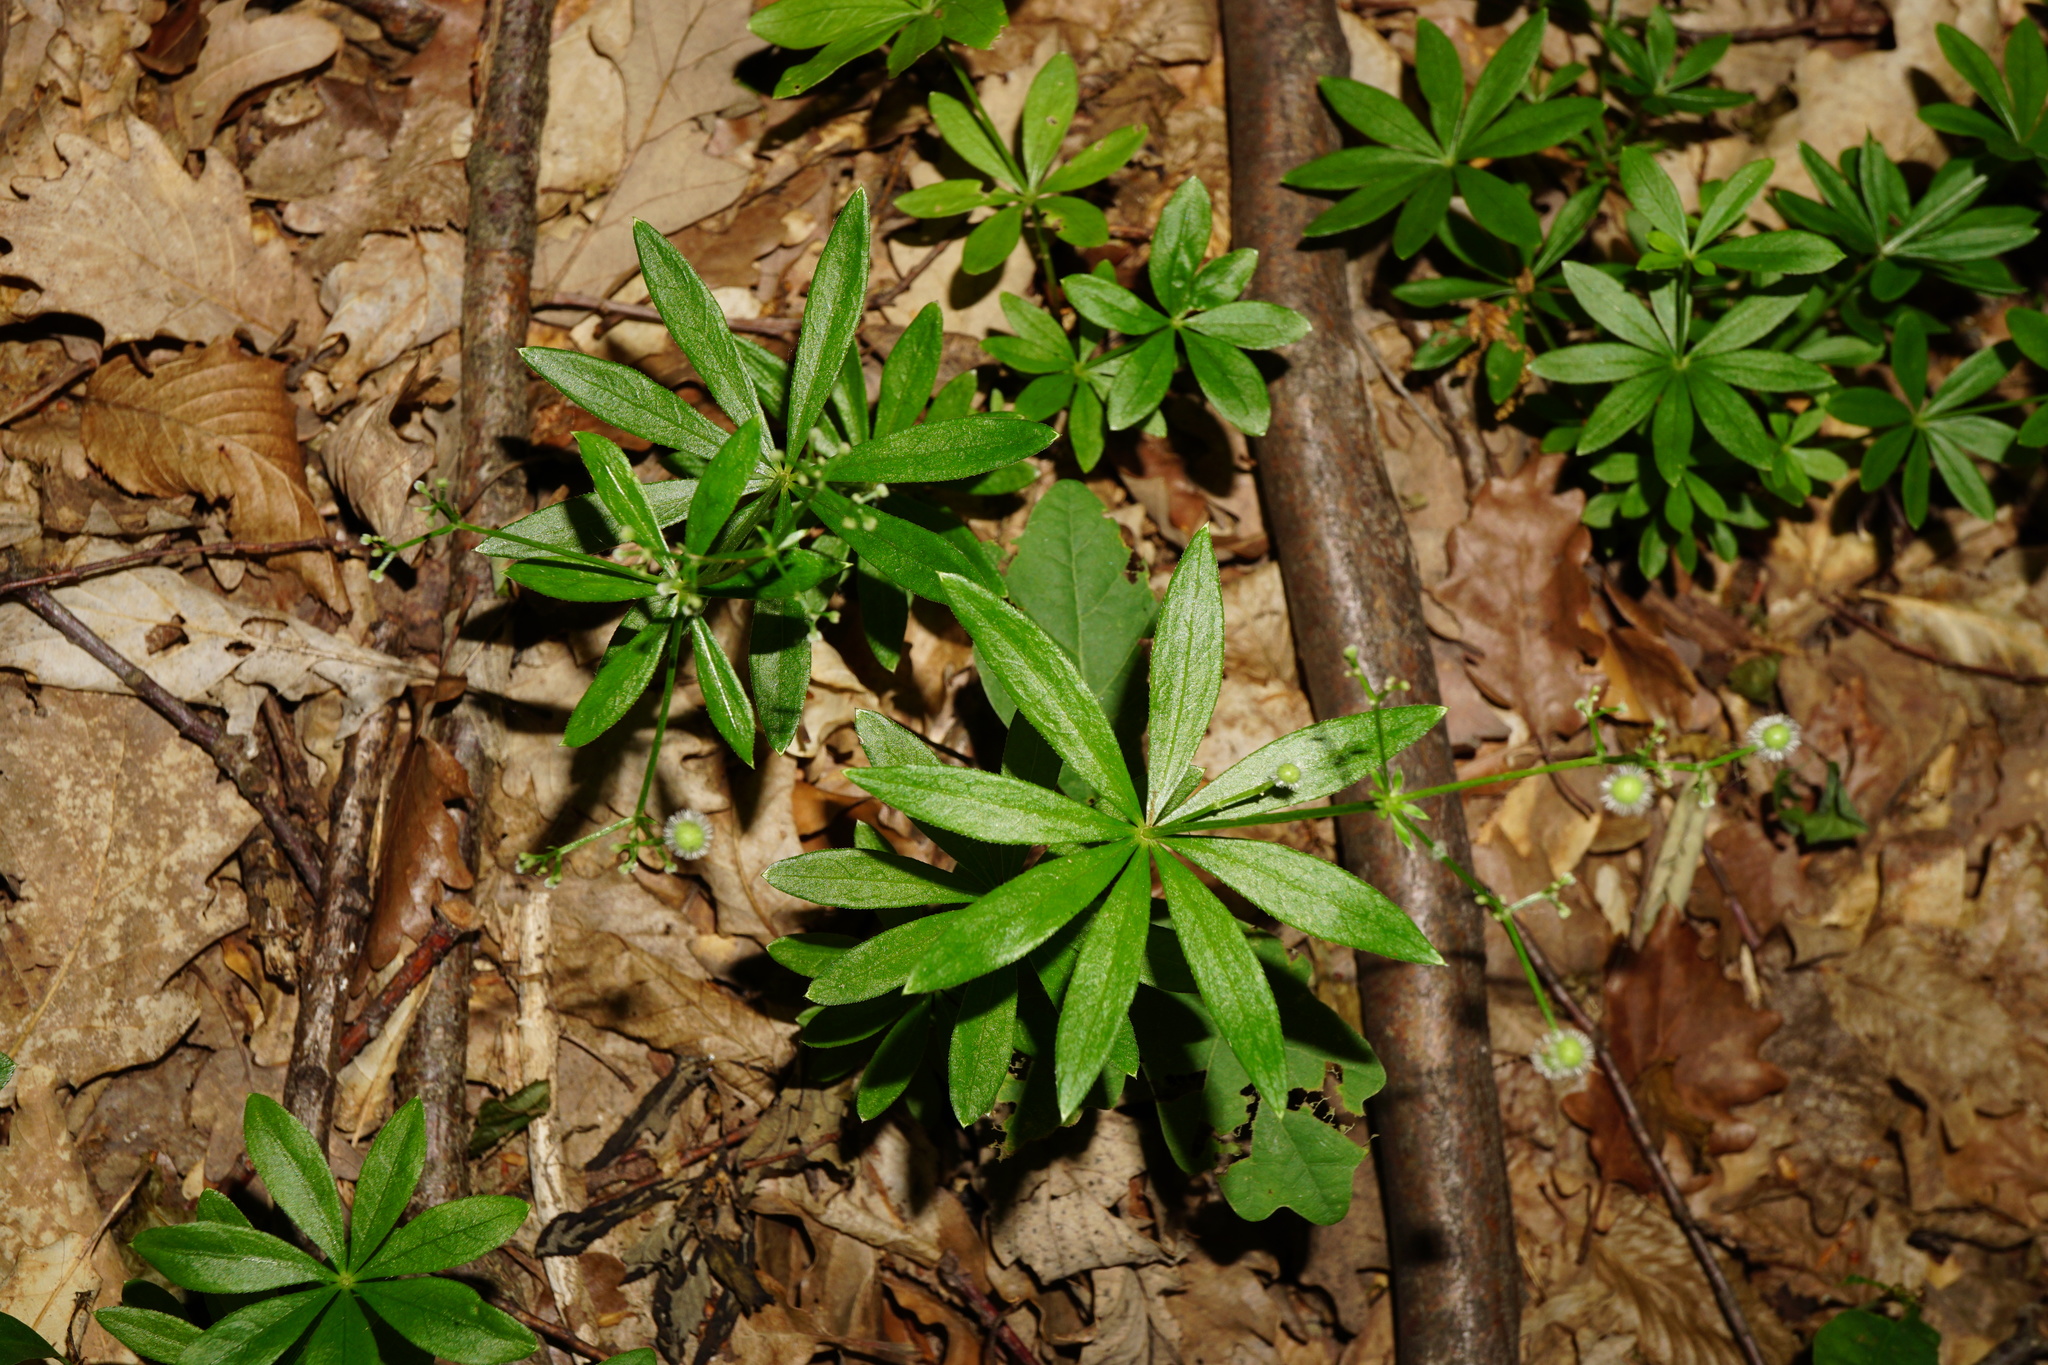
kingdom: Plantae
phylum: Tracheophyta
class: Magnoliopsida
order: Gentianales
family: Rubiaceae
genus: Galium
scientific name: Galium odoratum
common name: Sweet woodruff
